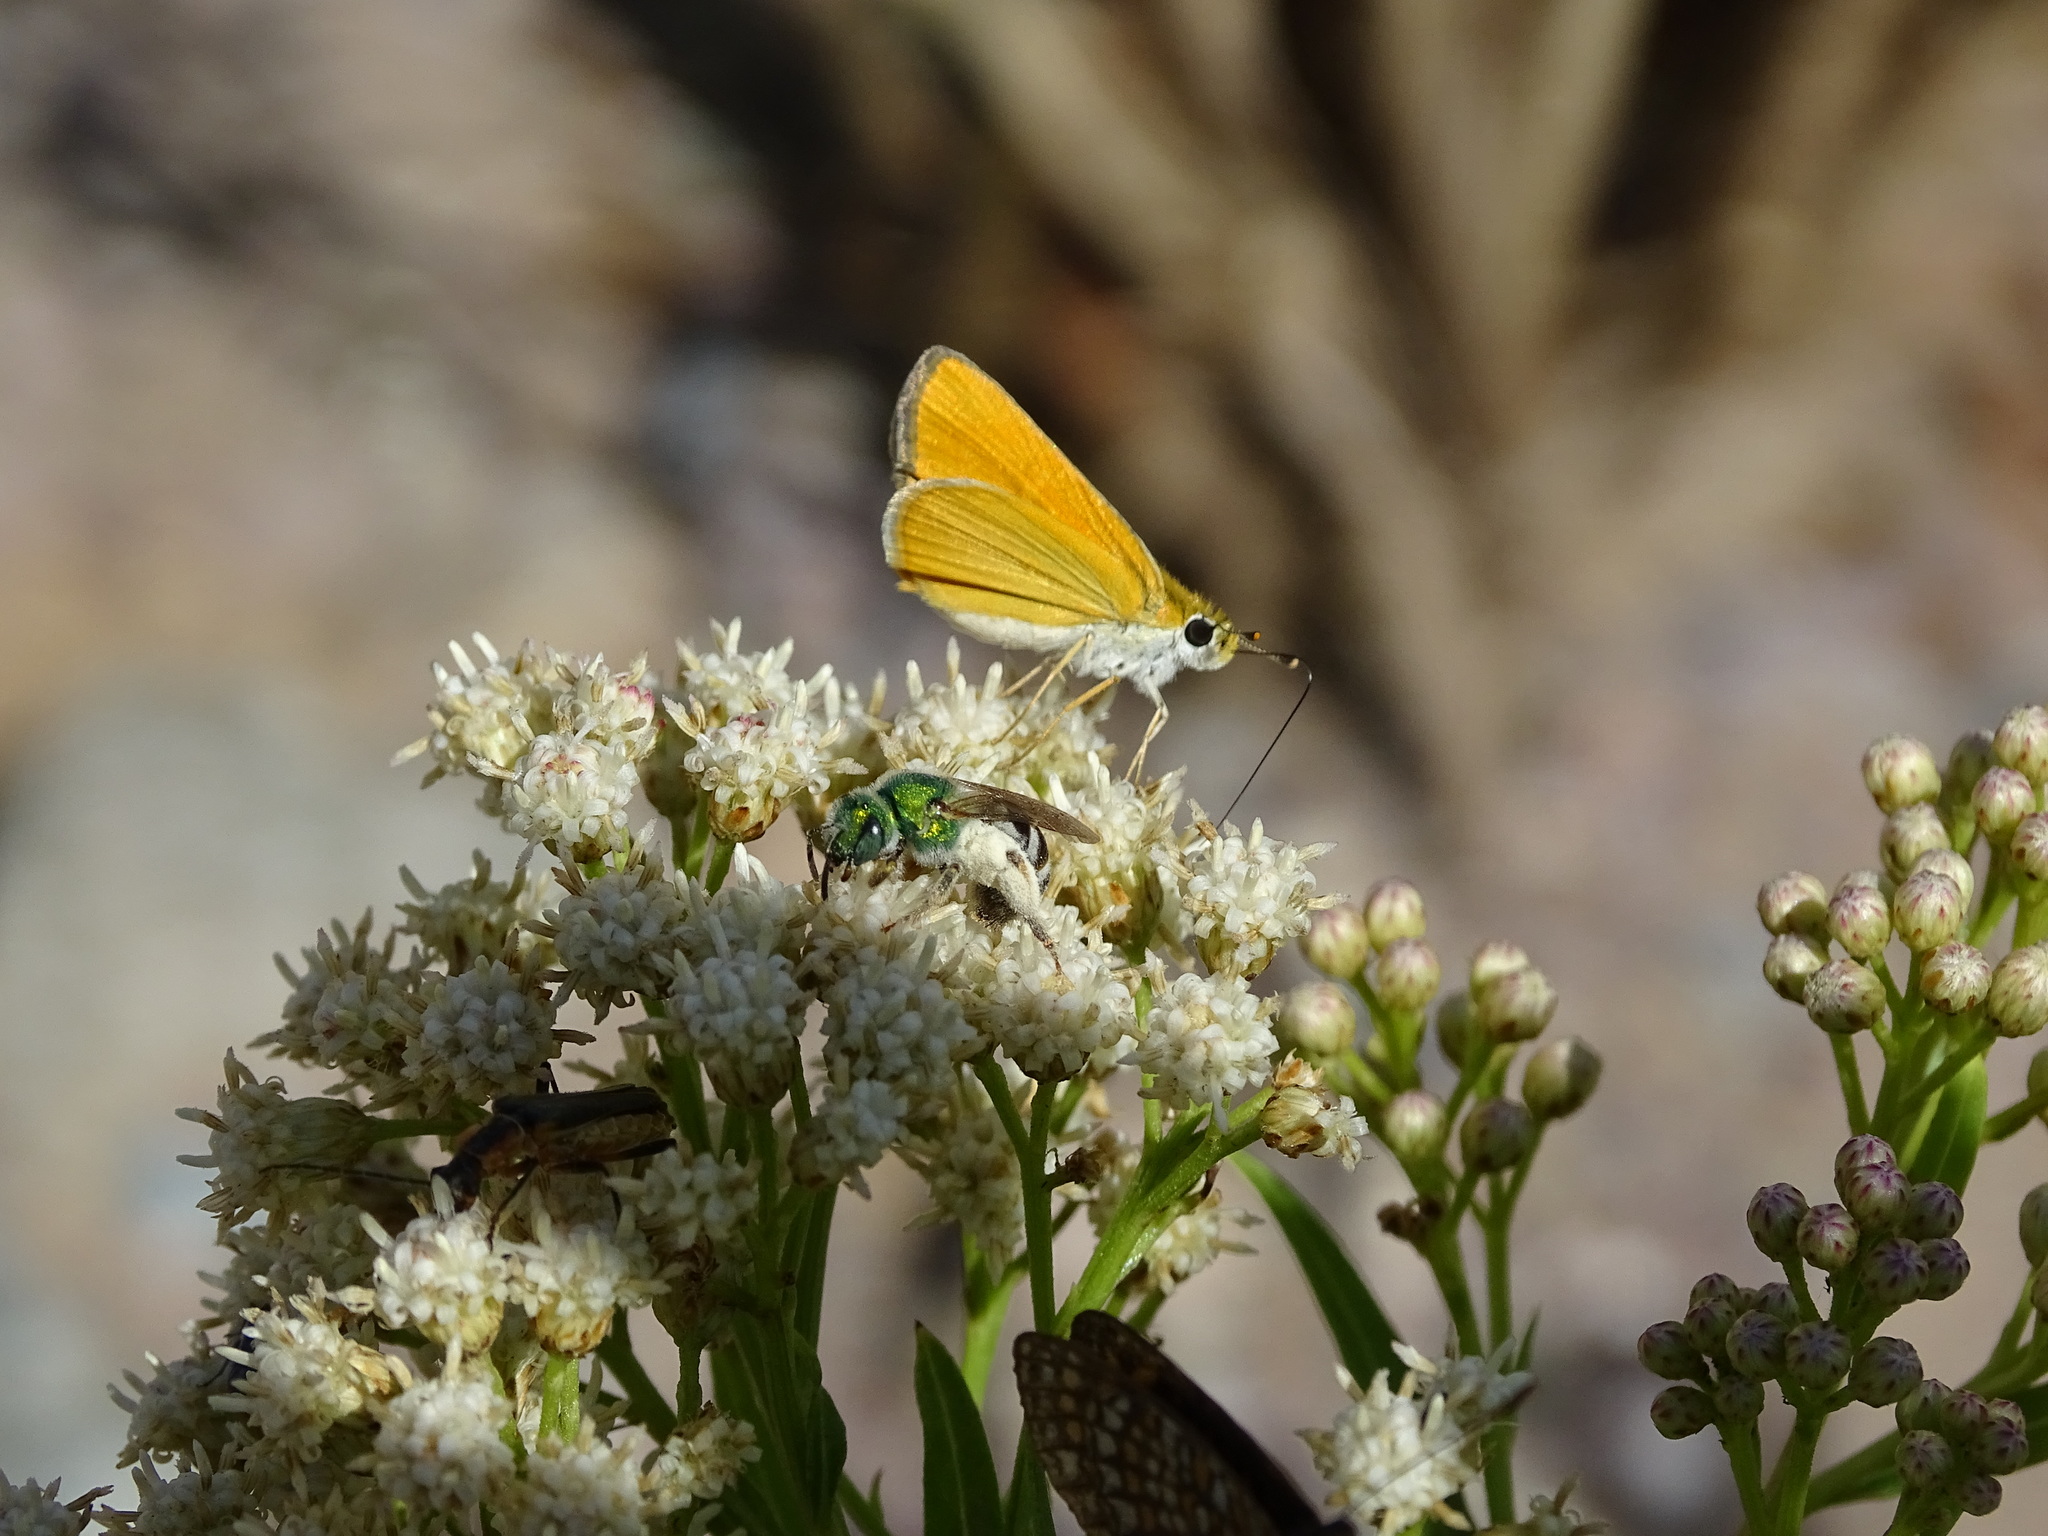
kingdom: Animalia
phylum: Arthropoda
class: Insecta
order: Lepidoptera
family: Hesperiidae
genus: Copaeodes
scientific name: Copaeodes aurantiaca
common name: Orange skipperling
